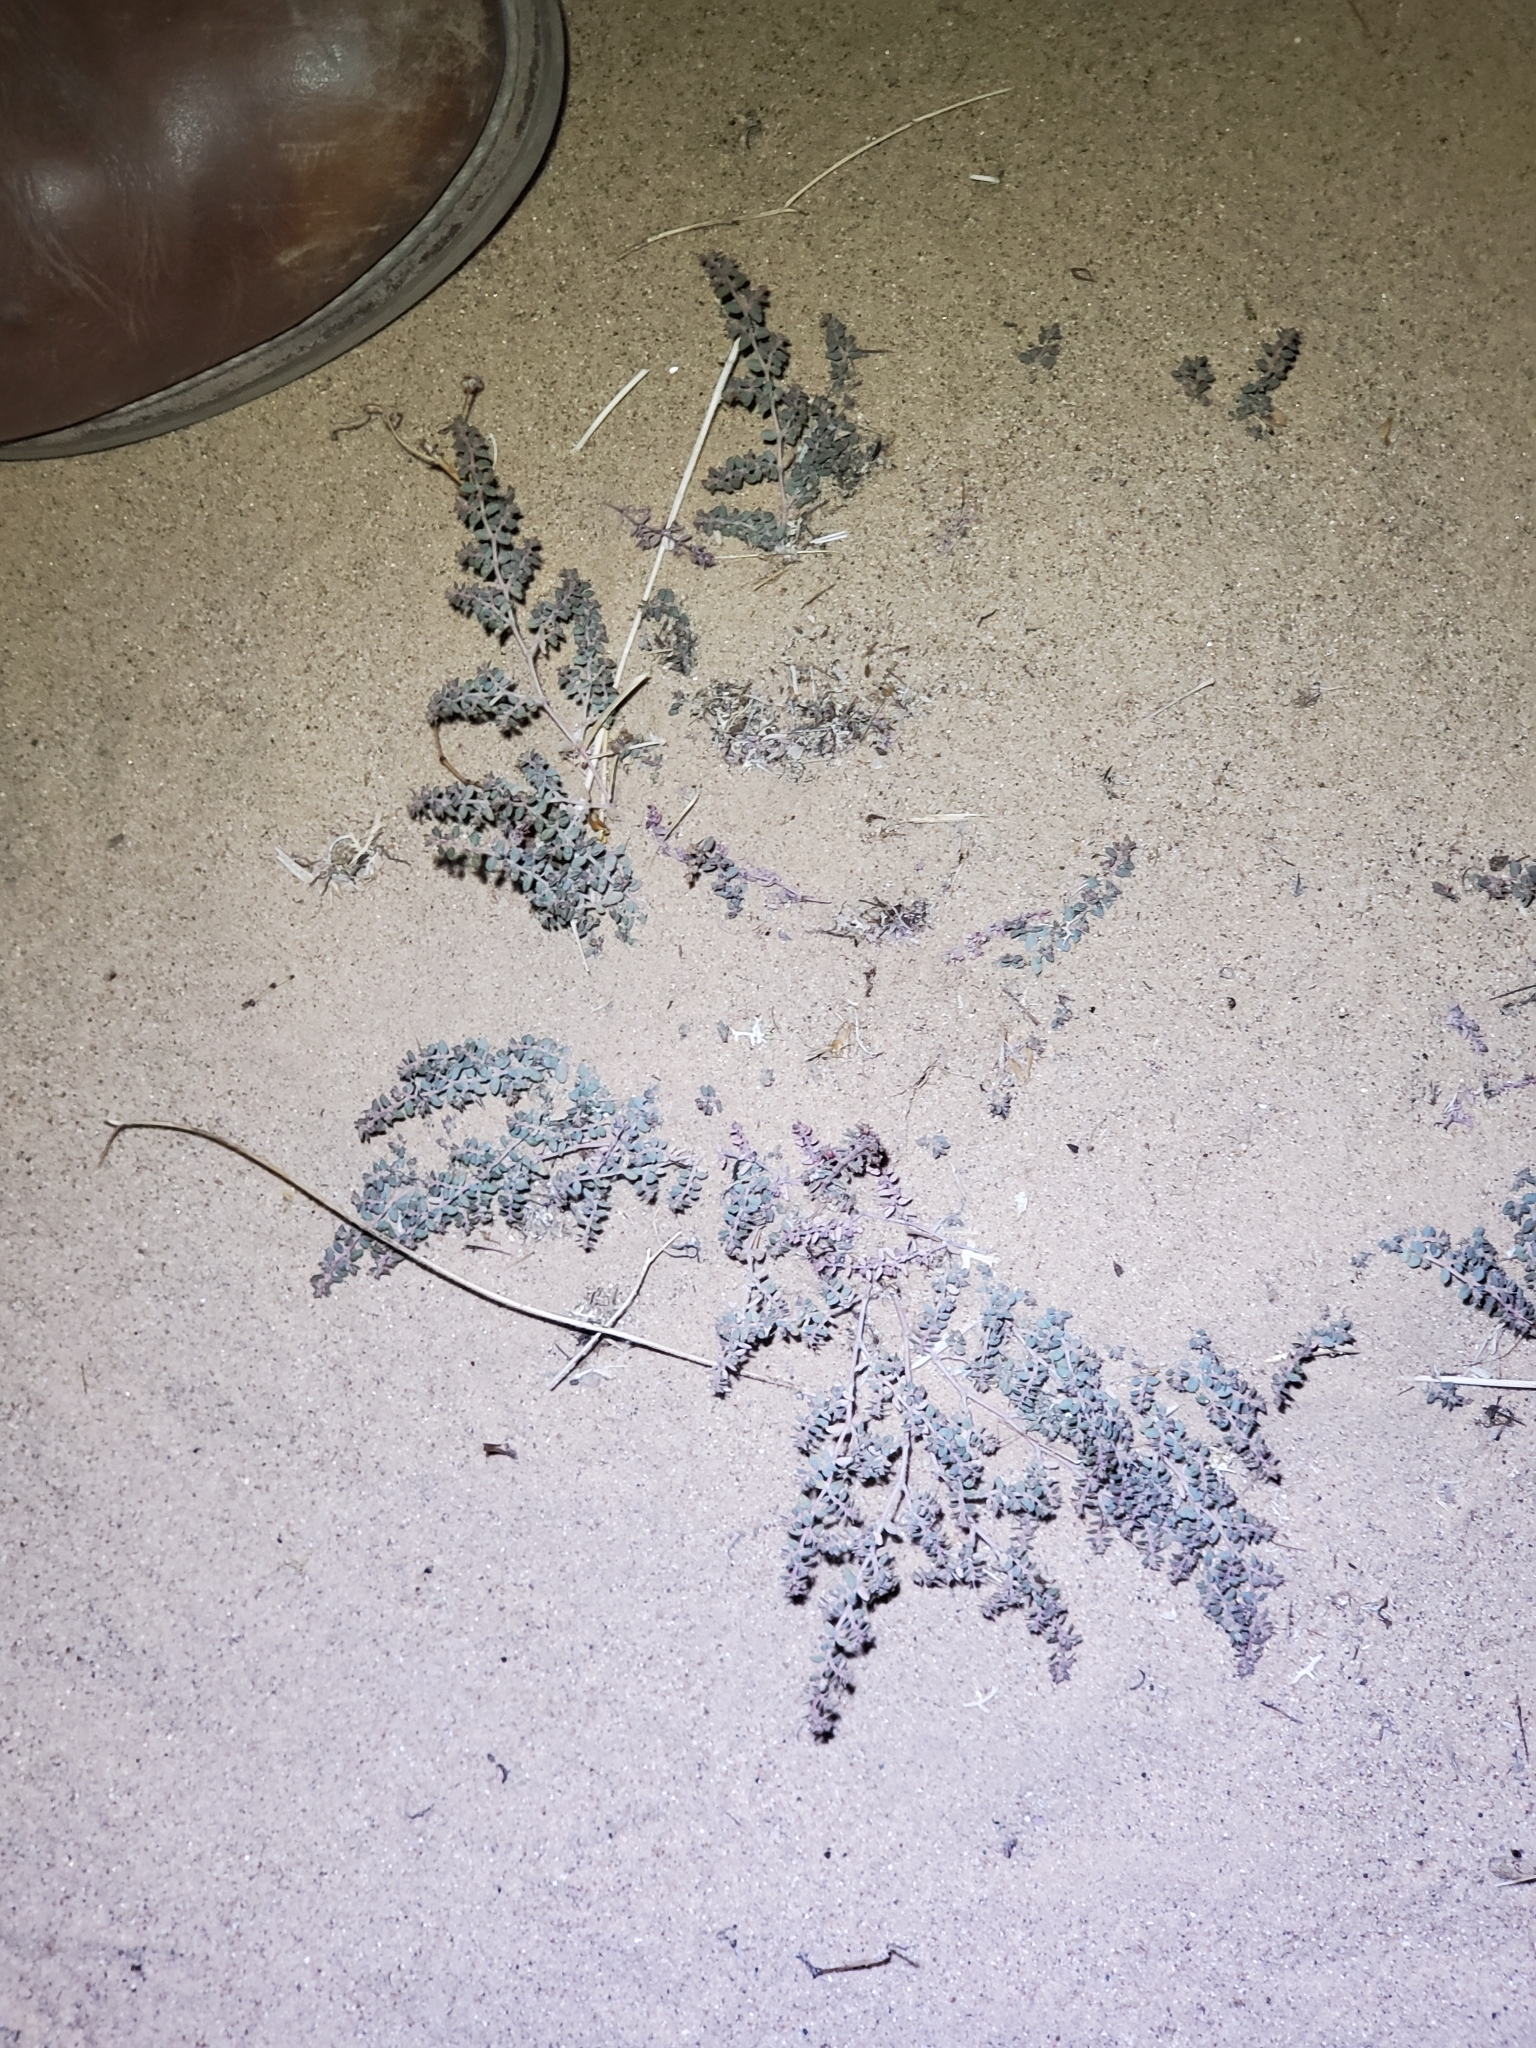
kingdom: Plantae
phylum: Tracheophyta
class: Magnoliopsida
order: Malpighiales
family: Euphorbiaceae
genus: Euphorbia
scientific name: Euphorbia micromera
